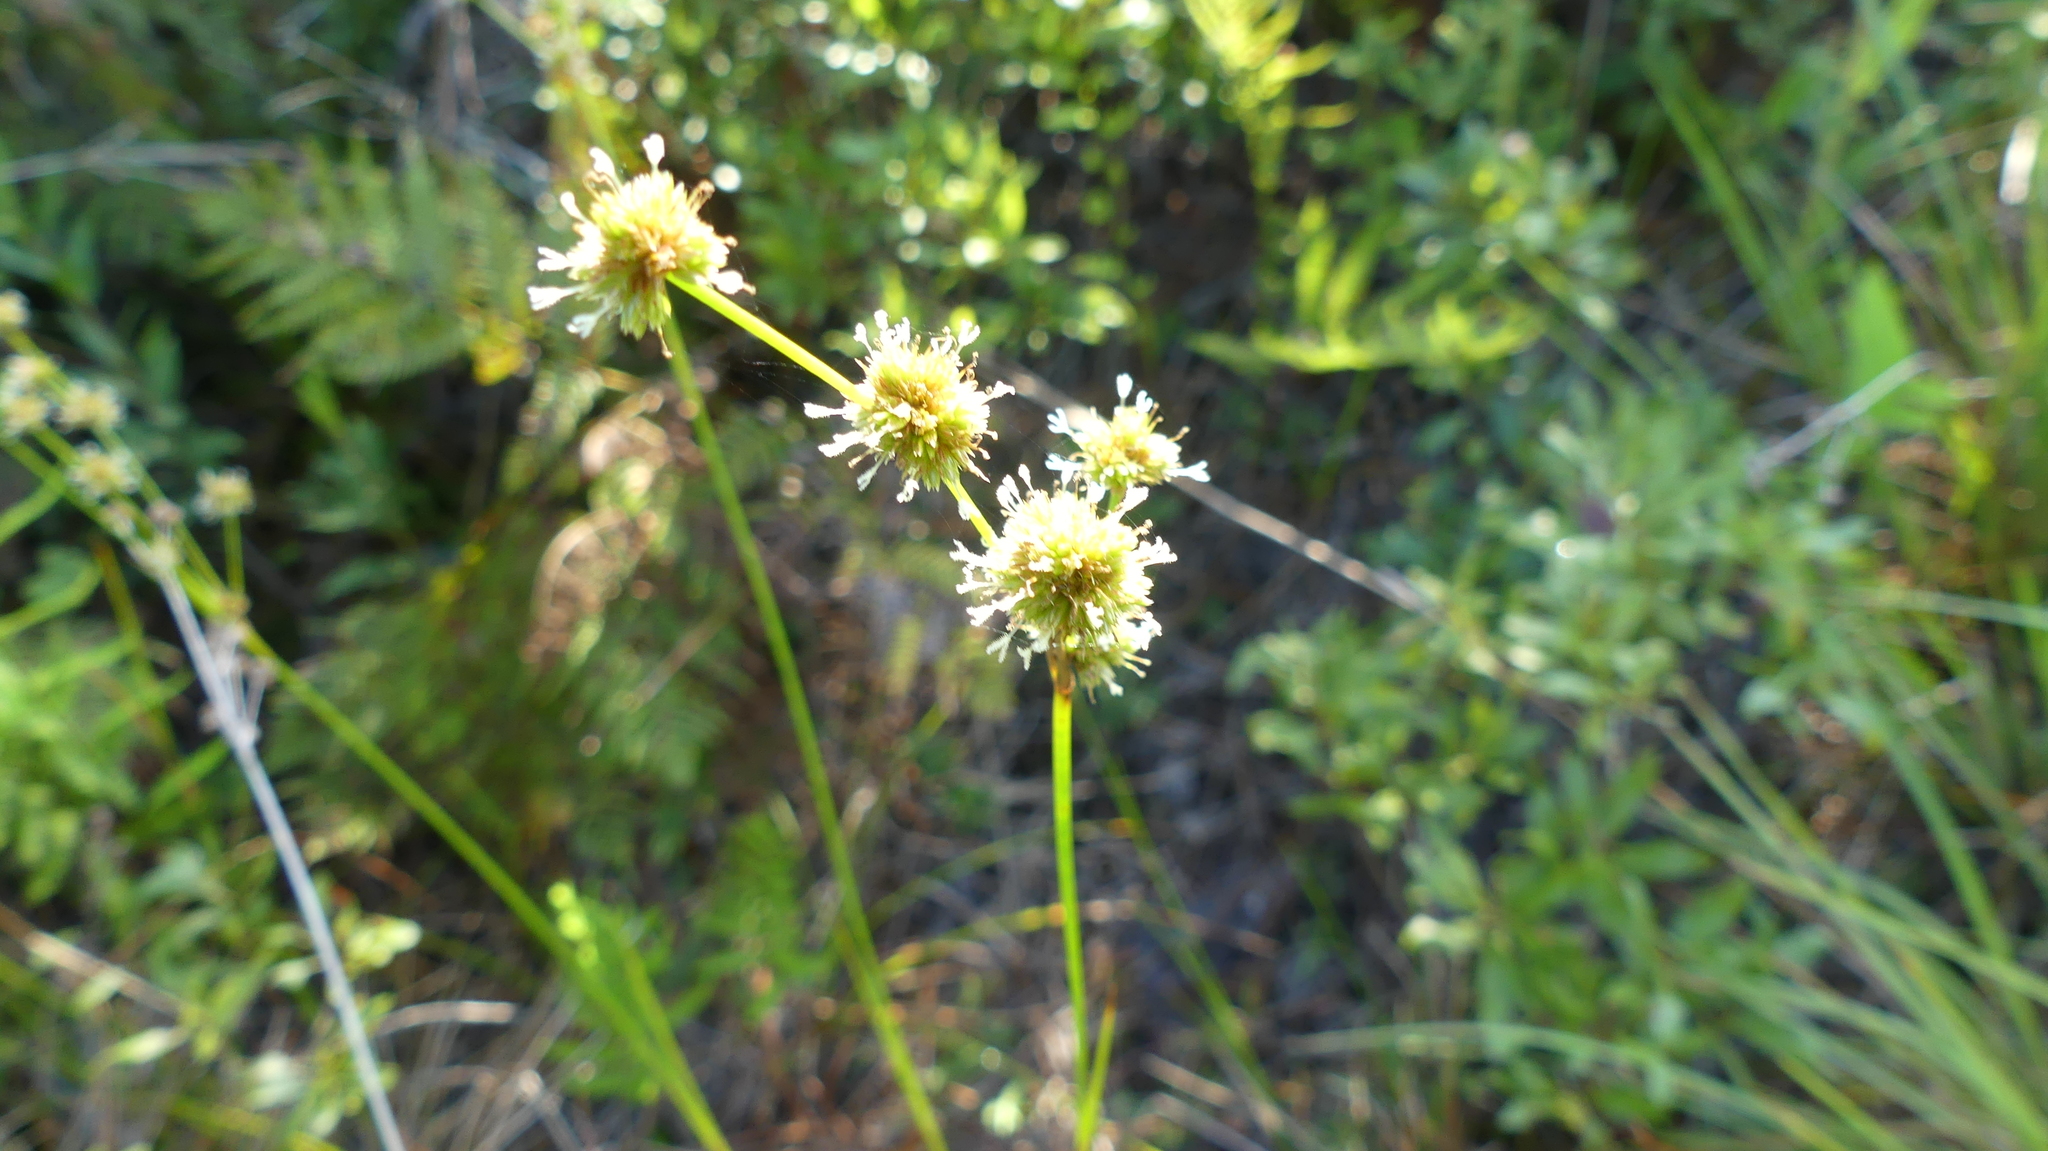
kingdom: Plantae
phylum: Tracheophyta
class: Liliopsida
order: Poales
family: Juncaceae
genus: Juncus
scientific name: Juncus scirpoides
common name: Needlepod rush
